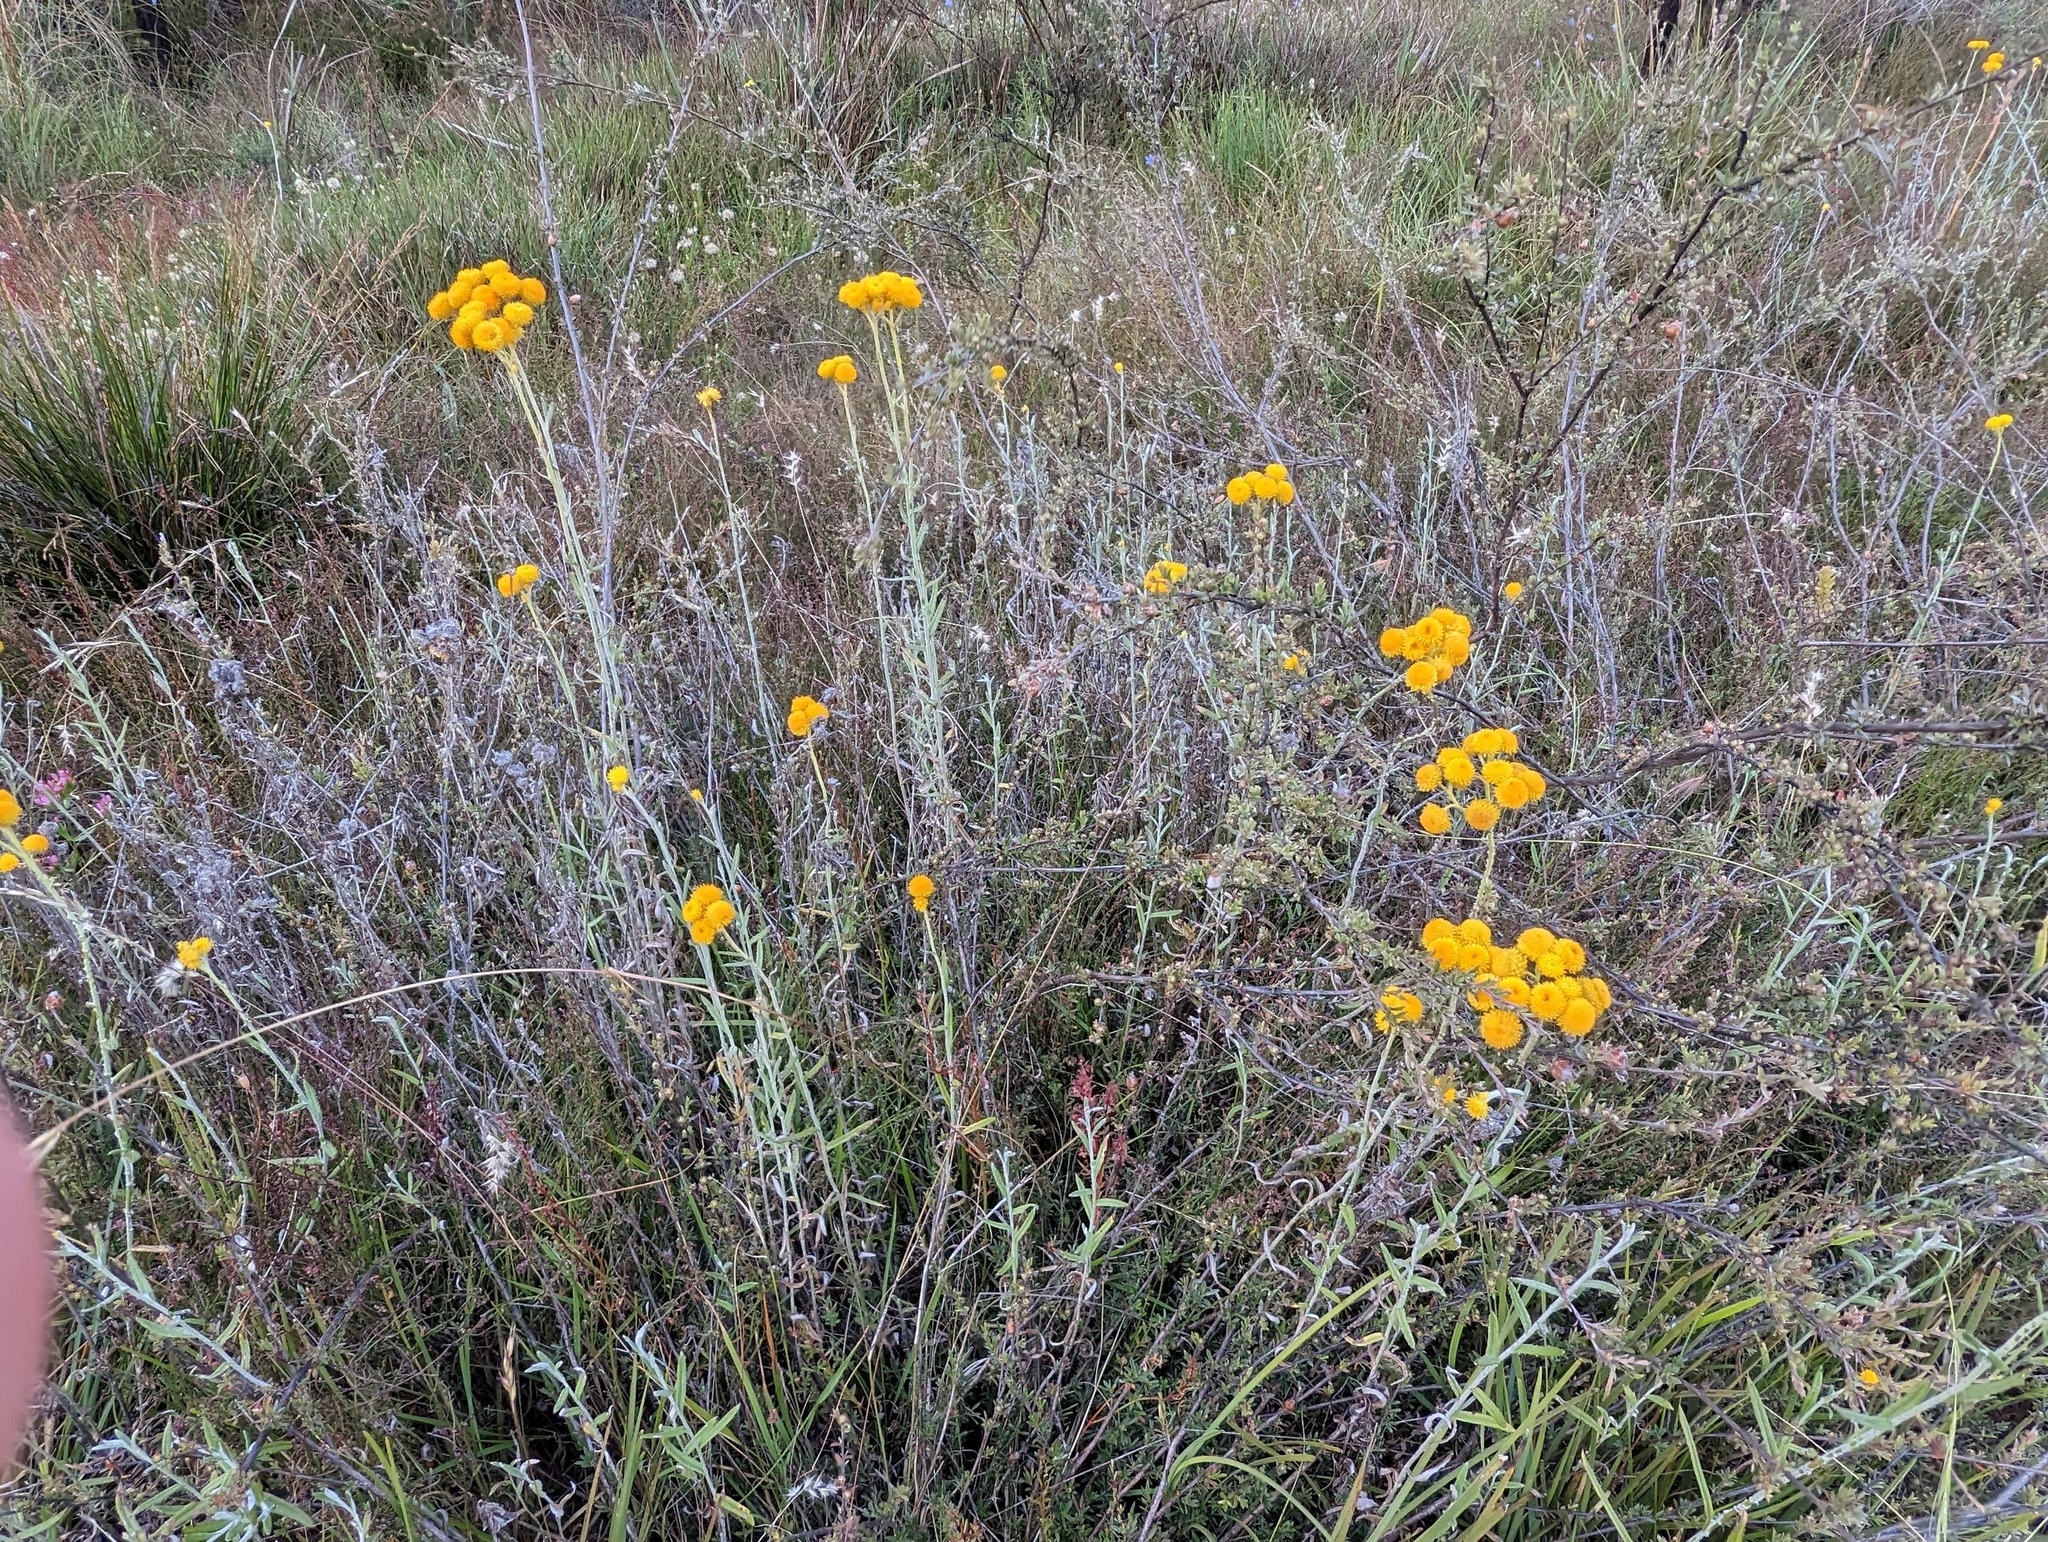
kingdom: Plantae
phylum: Tracheophyta
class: Magnoliopsida
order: Asterales
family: Asteraceae
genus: Chrysocephalum
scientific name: Chrysocephalum semipapposum
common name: Clustered everlasting
